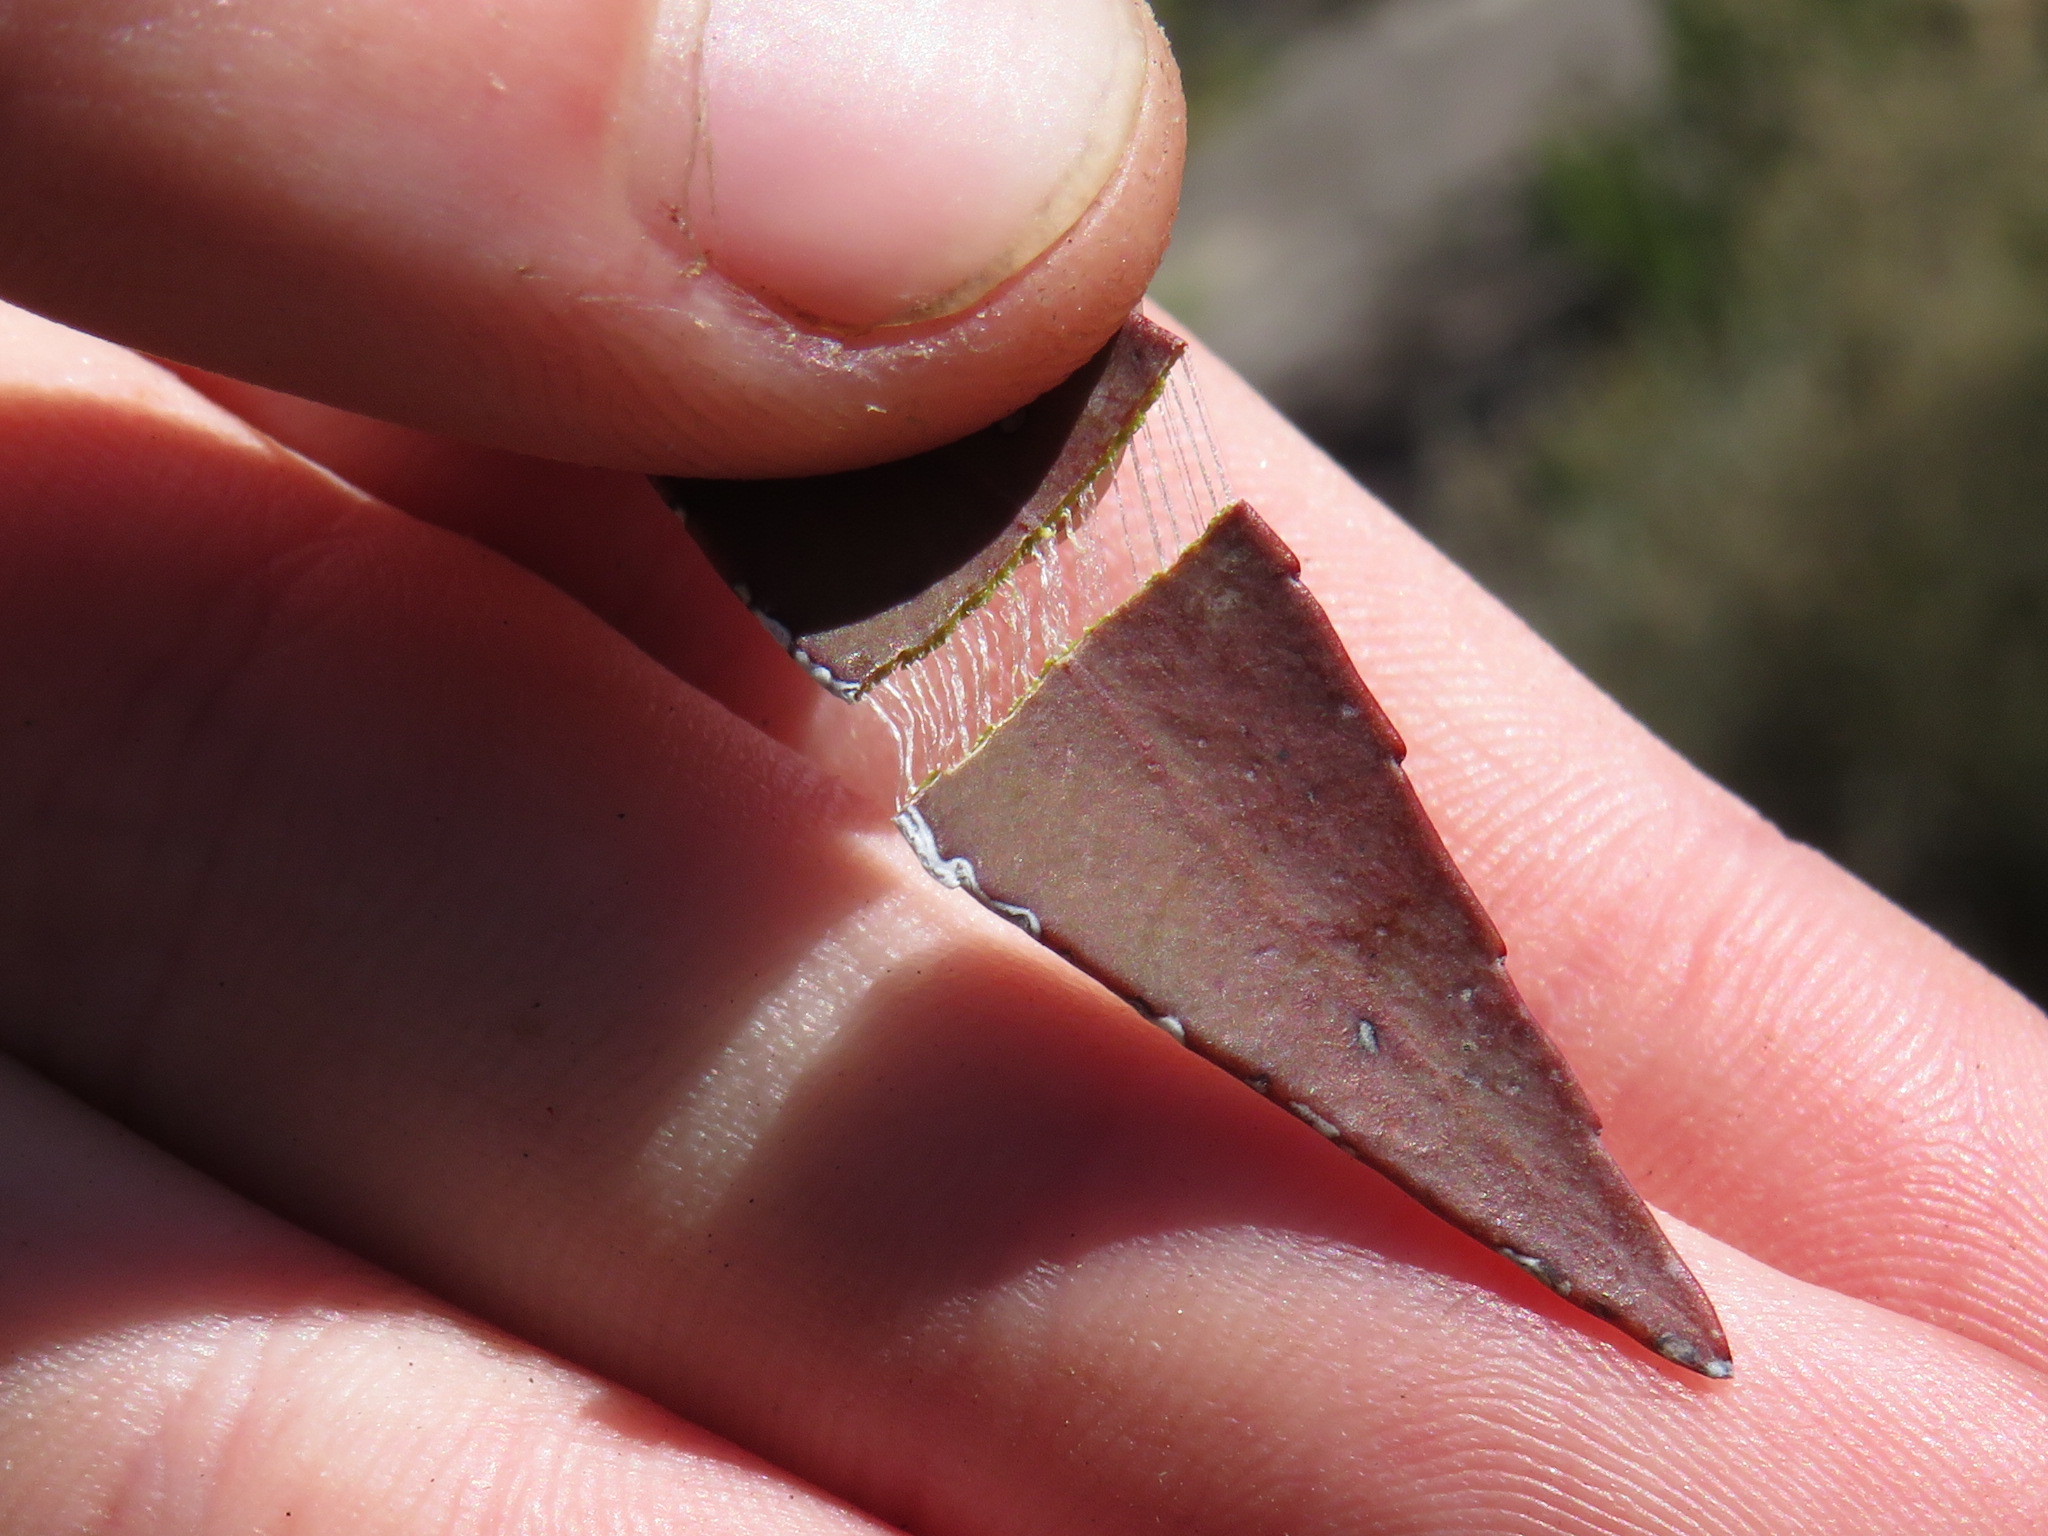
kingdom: Plantae
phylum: Tracheophyta
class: Magnoliopsida
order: Celastrales
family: Celastraceae
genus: Gymnosporia
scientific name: Gymnosporia acuminata
